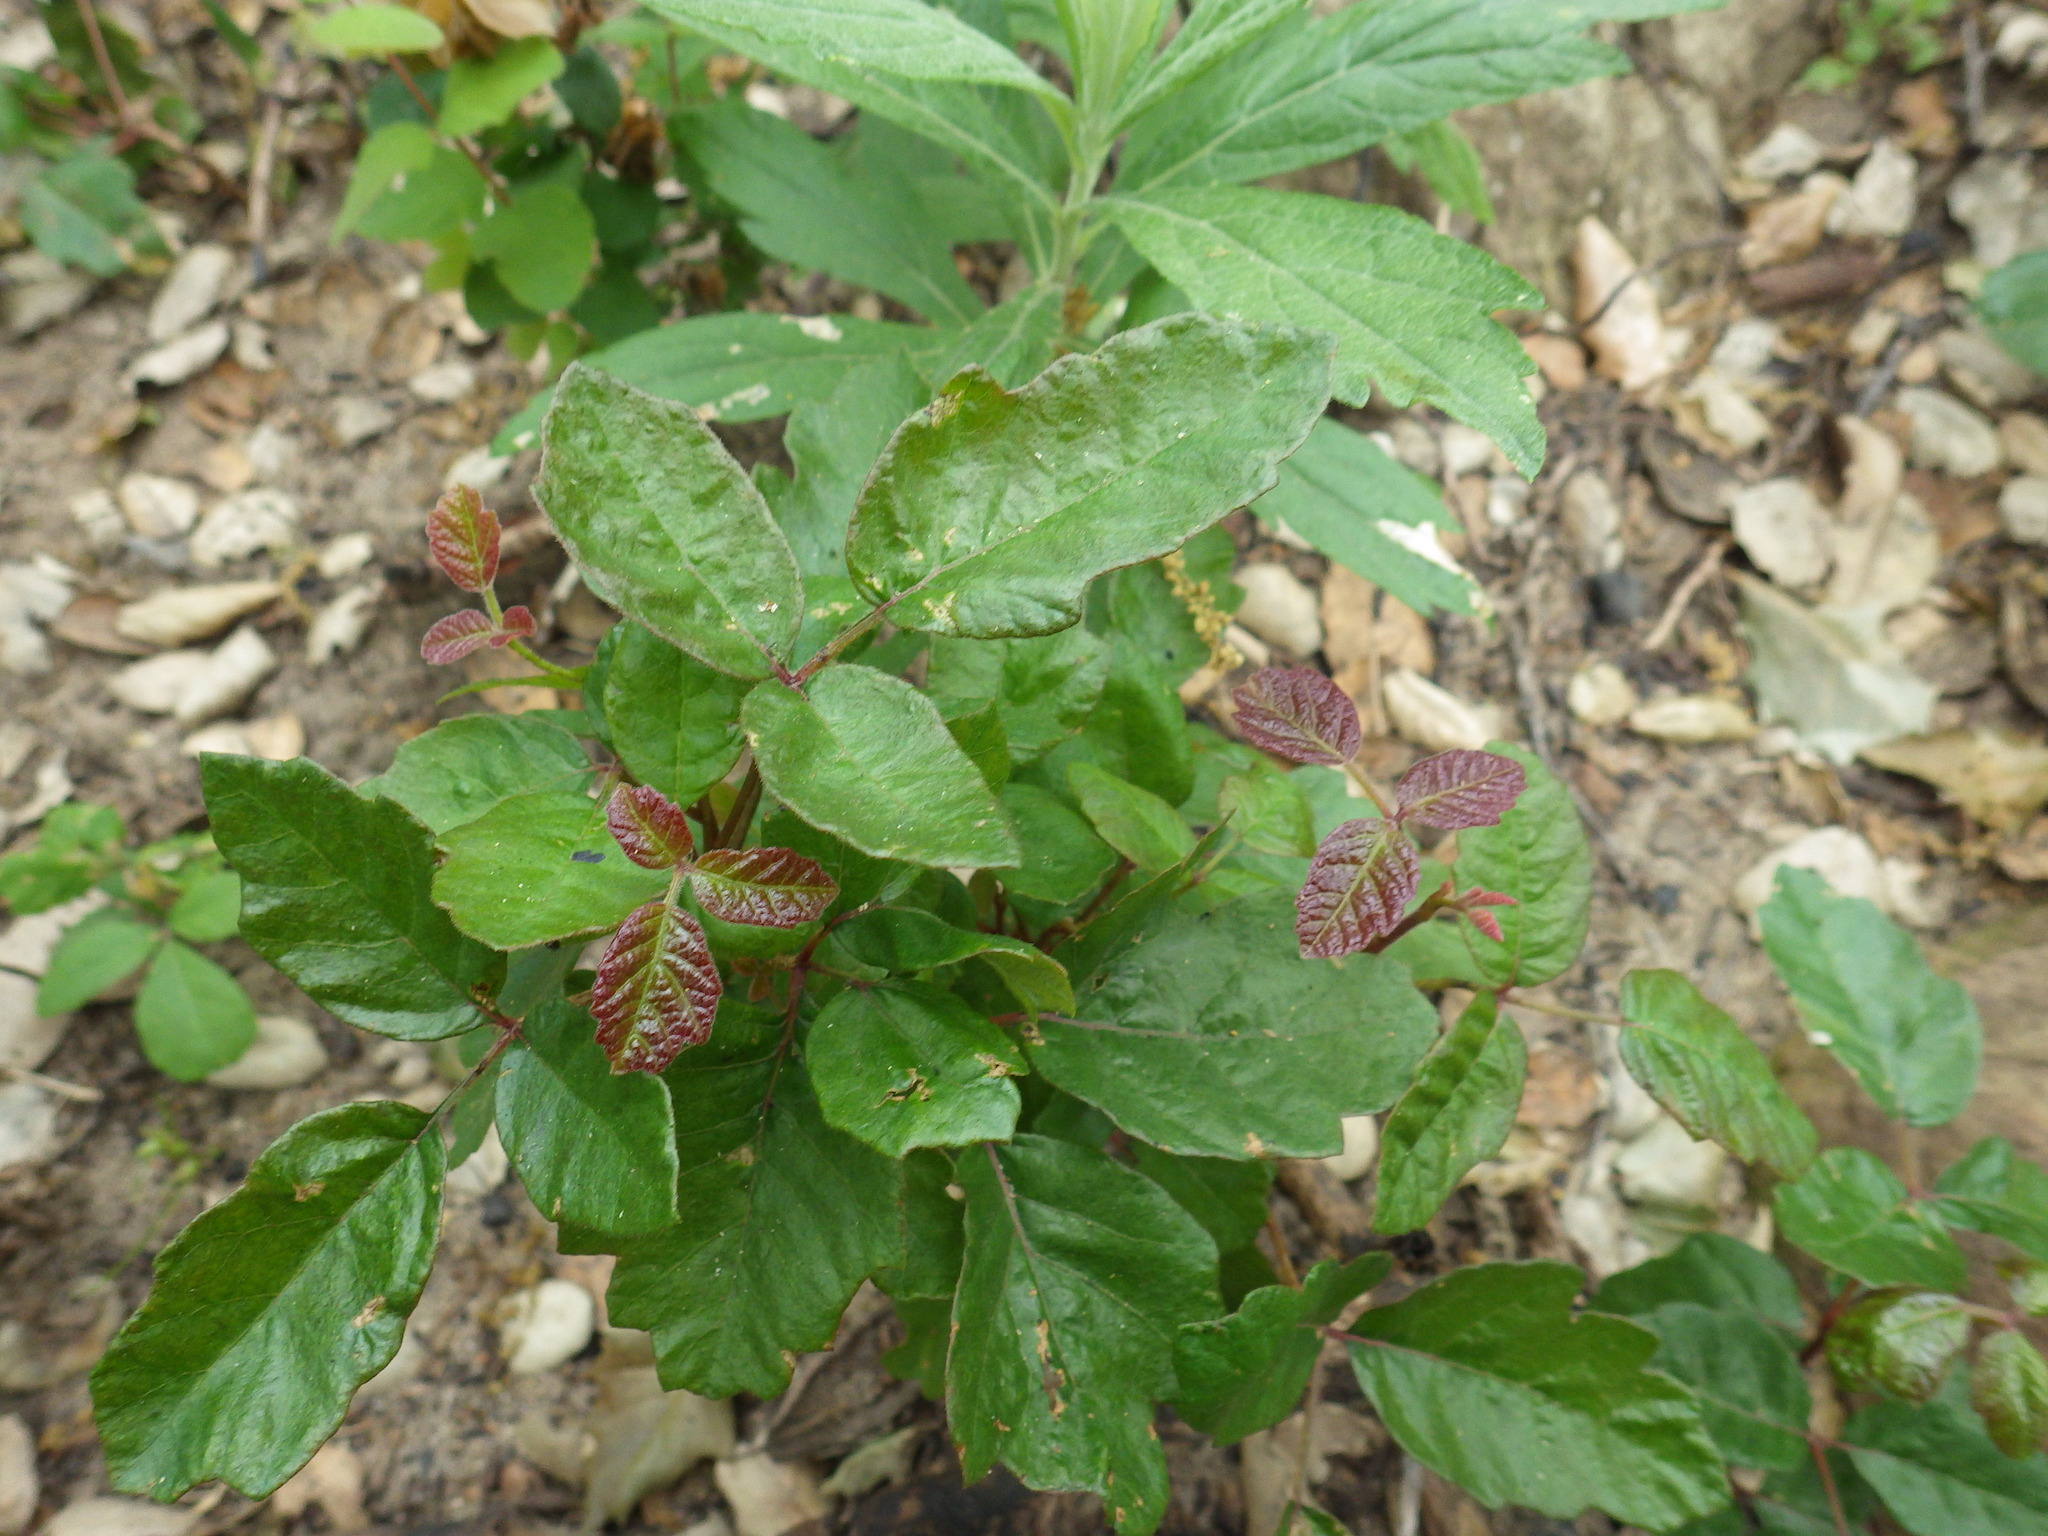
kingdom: Plantae
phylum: Tracheophyta
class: Magnoliopsida
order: Sapindales
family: Anacardiaceae
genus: Toxicodendron
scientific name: Toxicodendron diversilobum
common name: Pacific poison-oak
